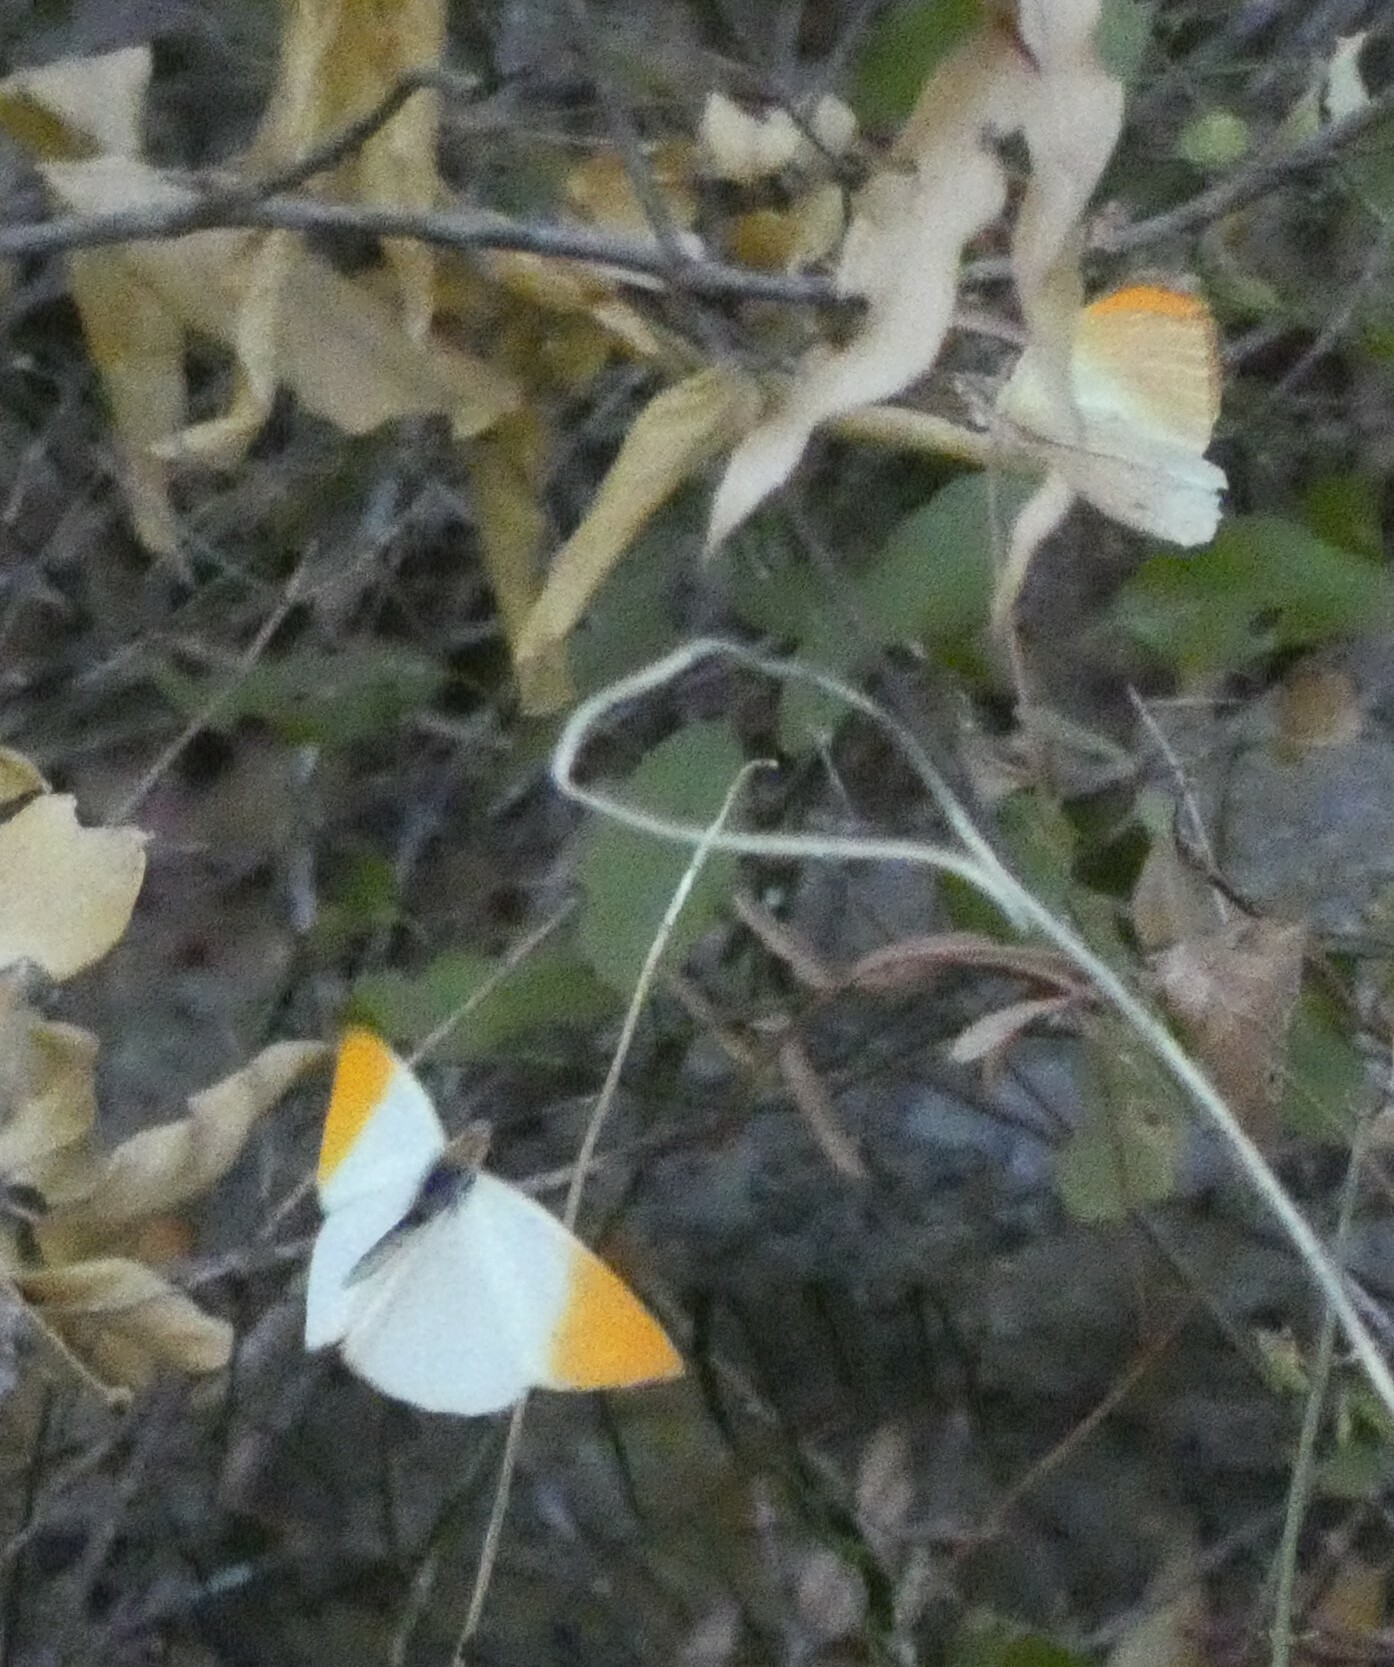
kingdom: Animalia
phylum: Arthropoda
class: Insecta
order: Lepidoptera
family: Pieridae
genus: Colotis
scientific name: Colotis evenina
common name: Common orange tip
